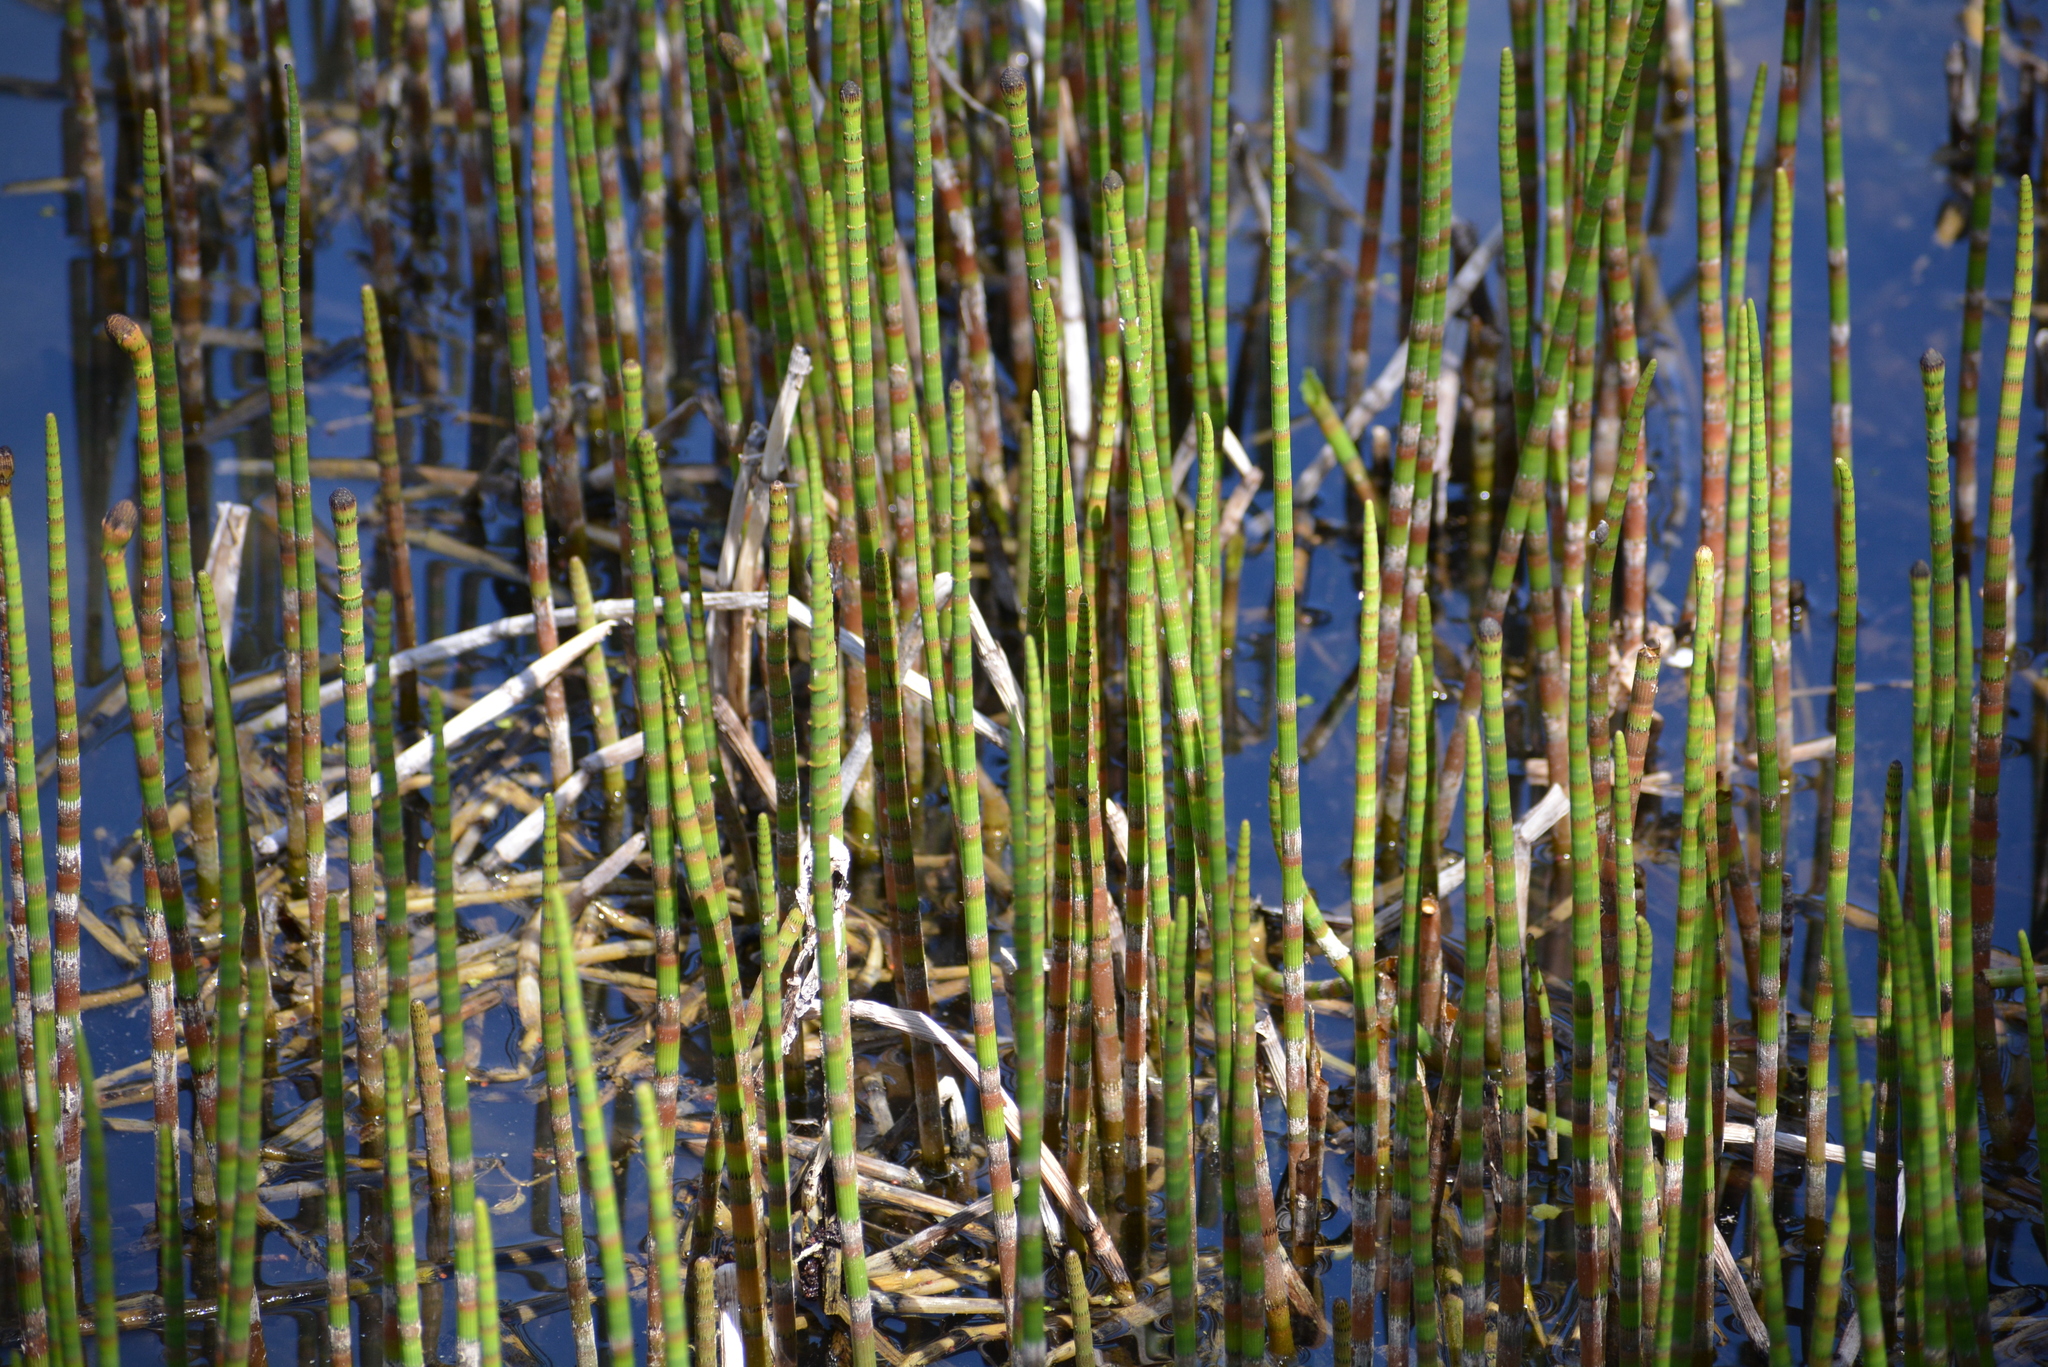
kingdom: Plantae
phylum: Tracheophyta
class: Polypodiopsida
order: Equisetales
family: Equisetaceae
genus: Equisetum
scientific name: Equisetum fluviatile
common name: Water horsetail
